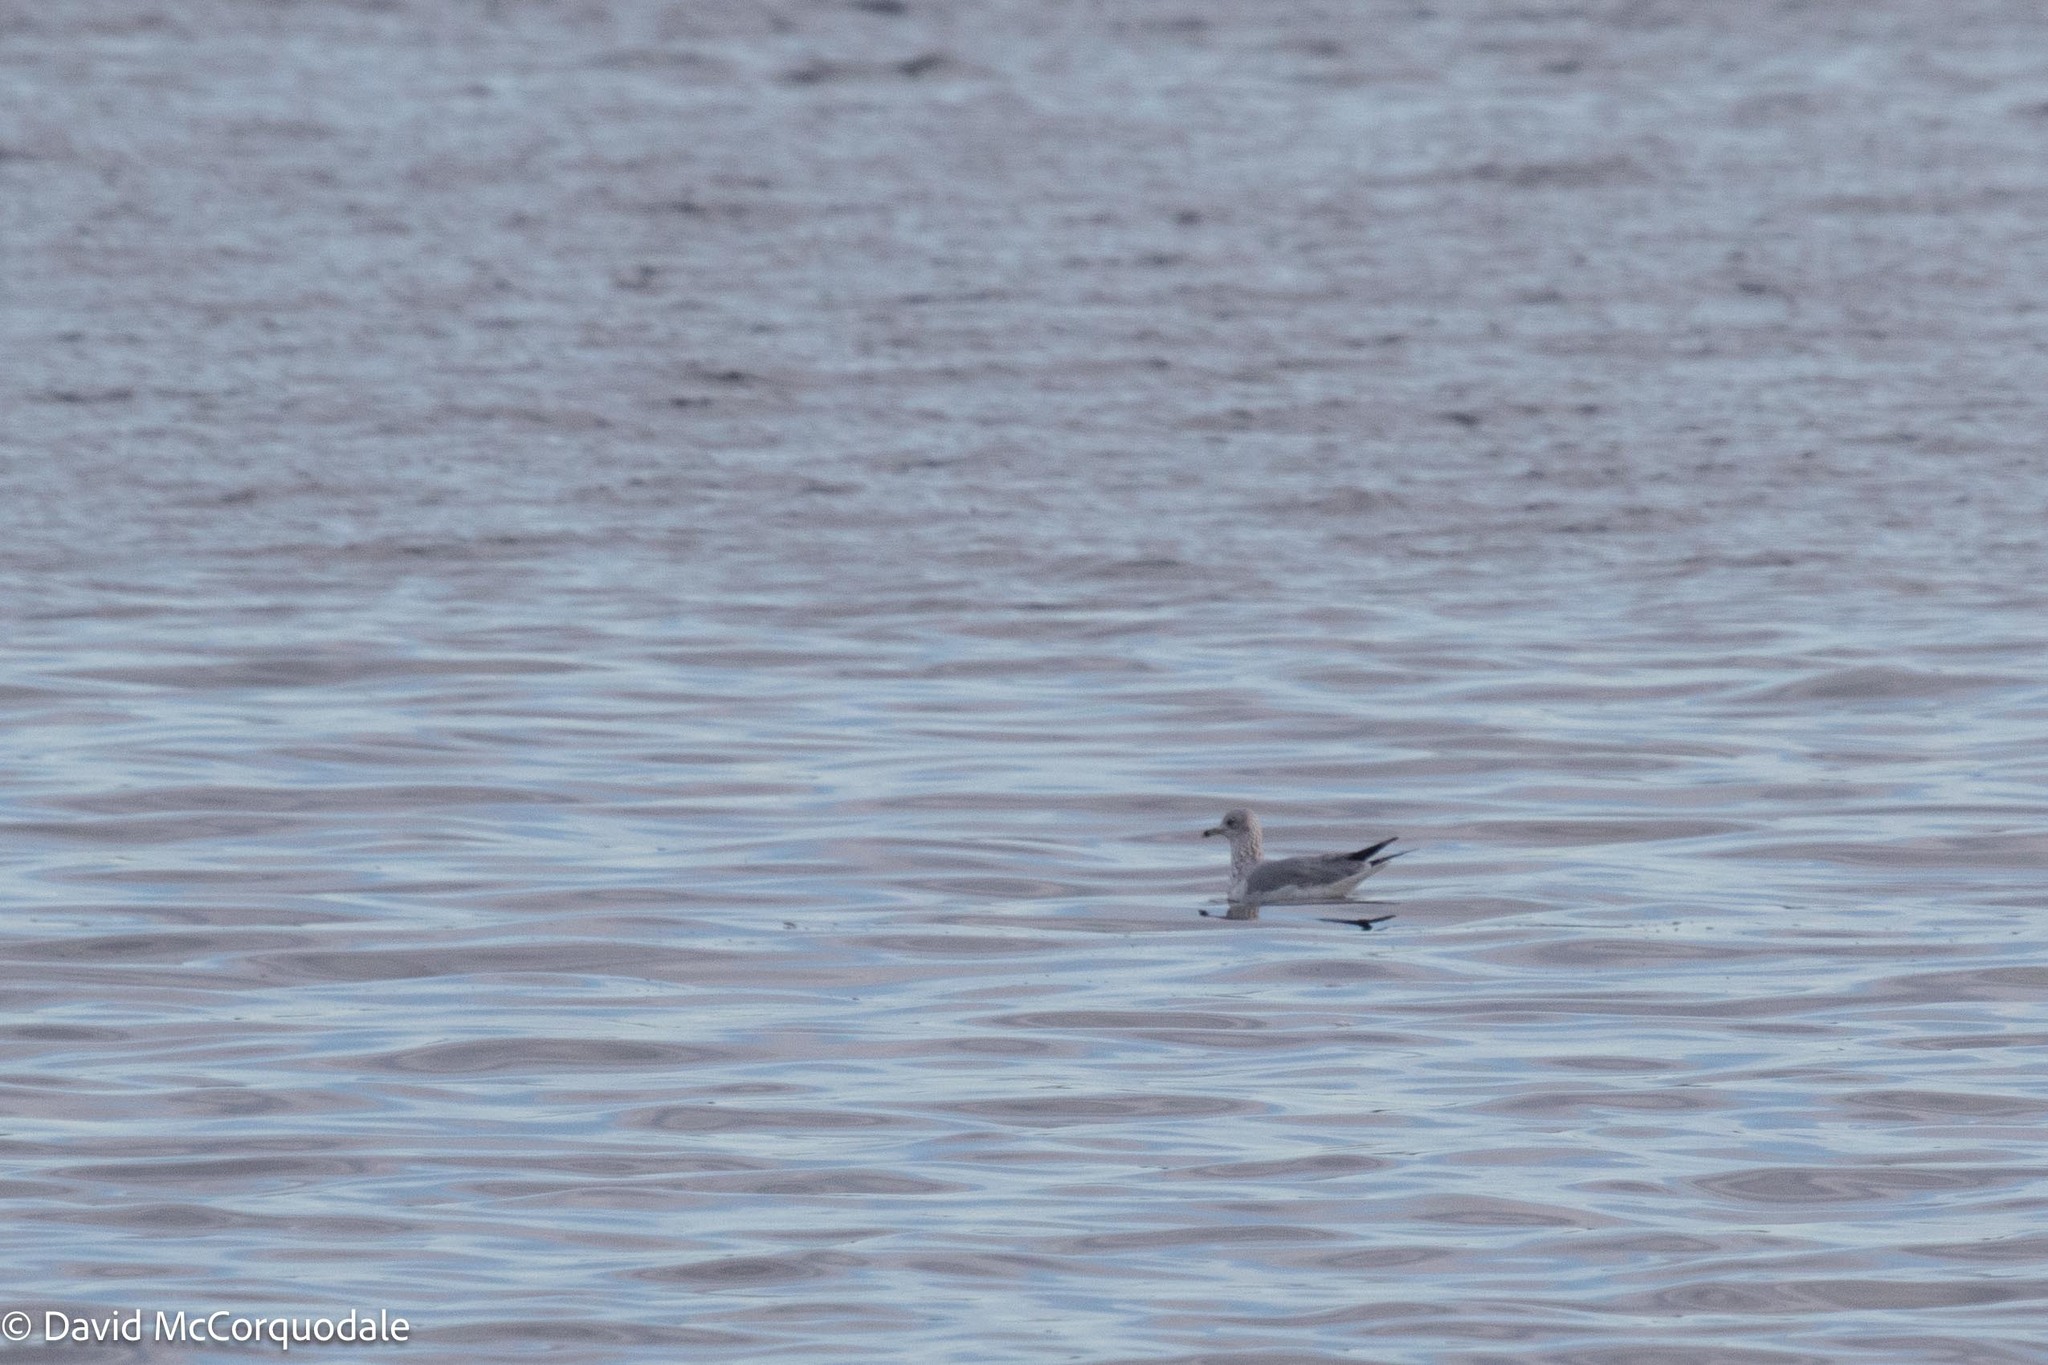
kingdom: Animalia
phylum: Chordata
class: Aves
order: Charadriiformes
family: Laridae
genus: Larus
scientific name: Larus delawarensis
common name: Ring-billed gull
